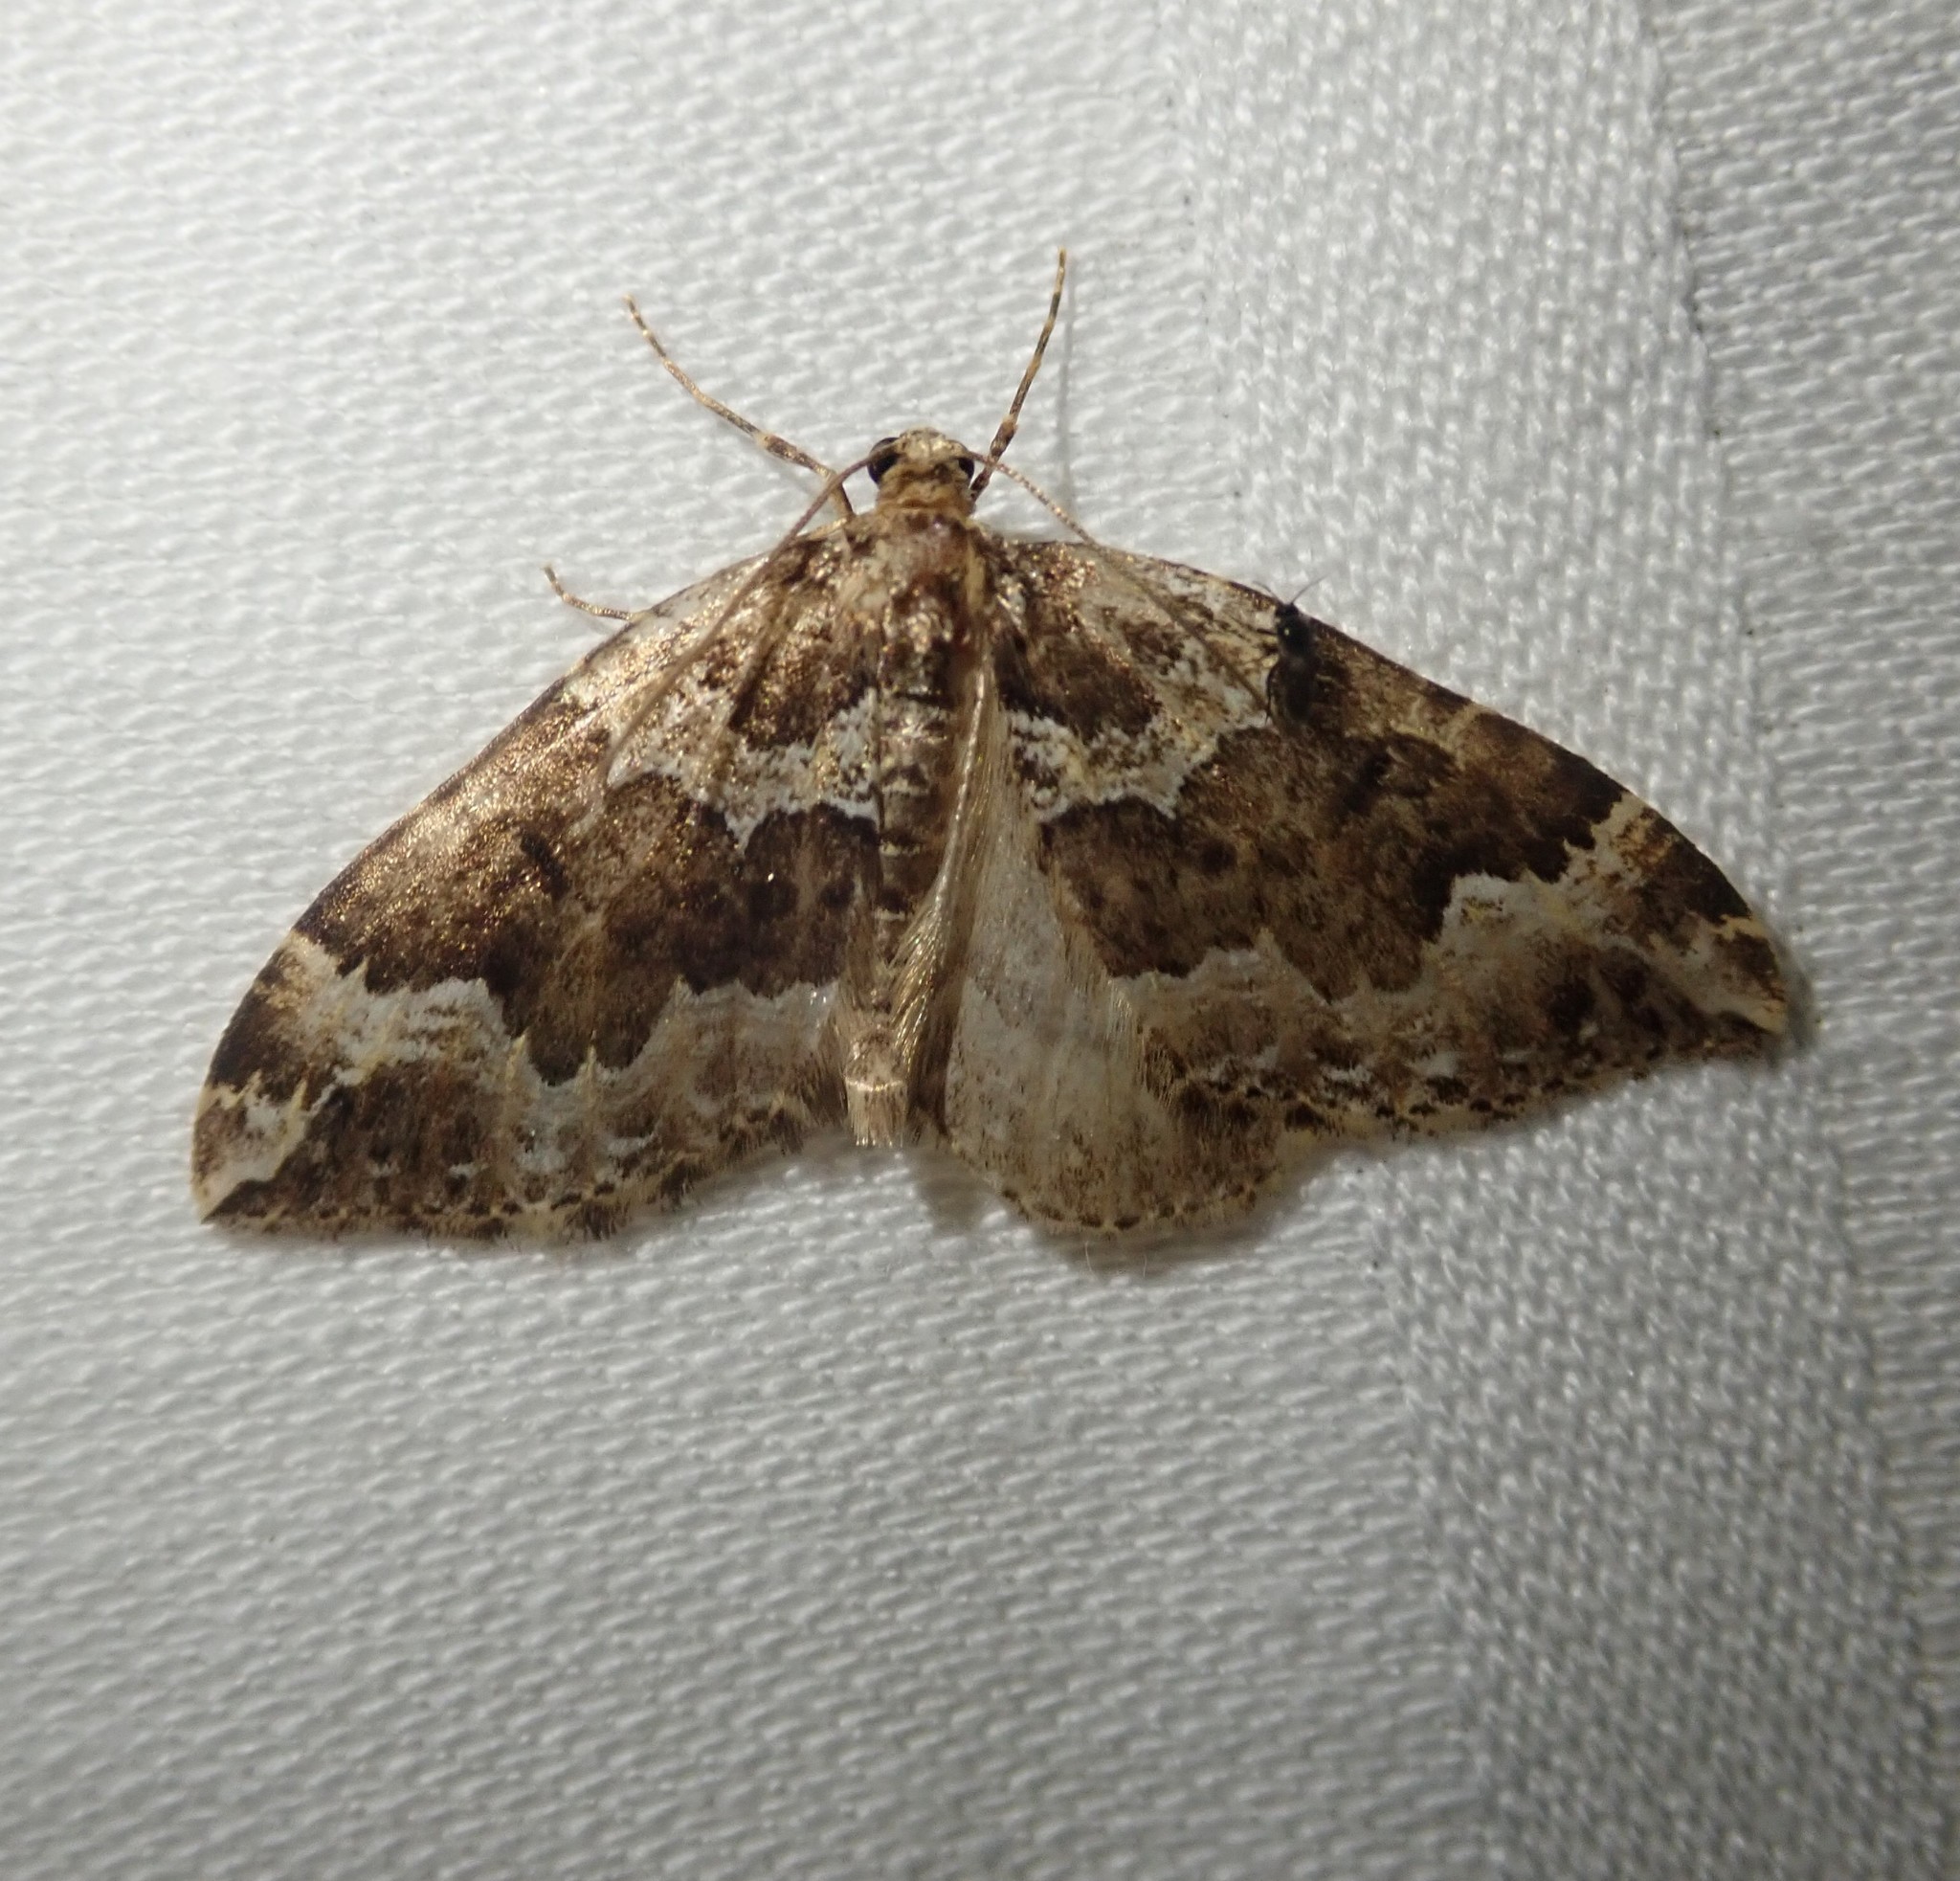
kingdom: Animalia
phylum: Arthropoda
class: Insecta
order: Lepidoptera
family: Geometridae
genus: Lampropteryx
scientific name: Lampropteryx suffumata
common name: Water carpet
